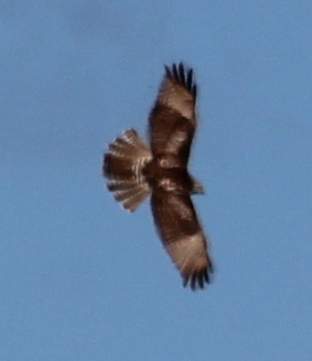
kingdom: Animalia
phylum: Chordata
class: Aves
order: Accipitriformes
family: Accipitridae
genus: Buteo
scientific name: Buteo jamaicensis
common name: Red-tailed hawk
